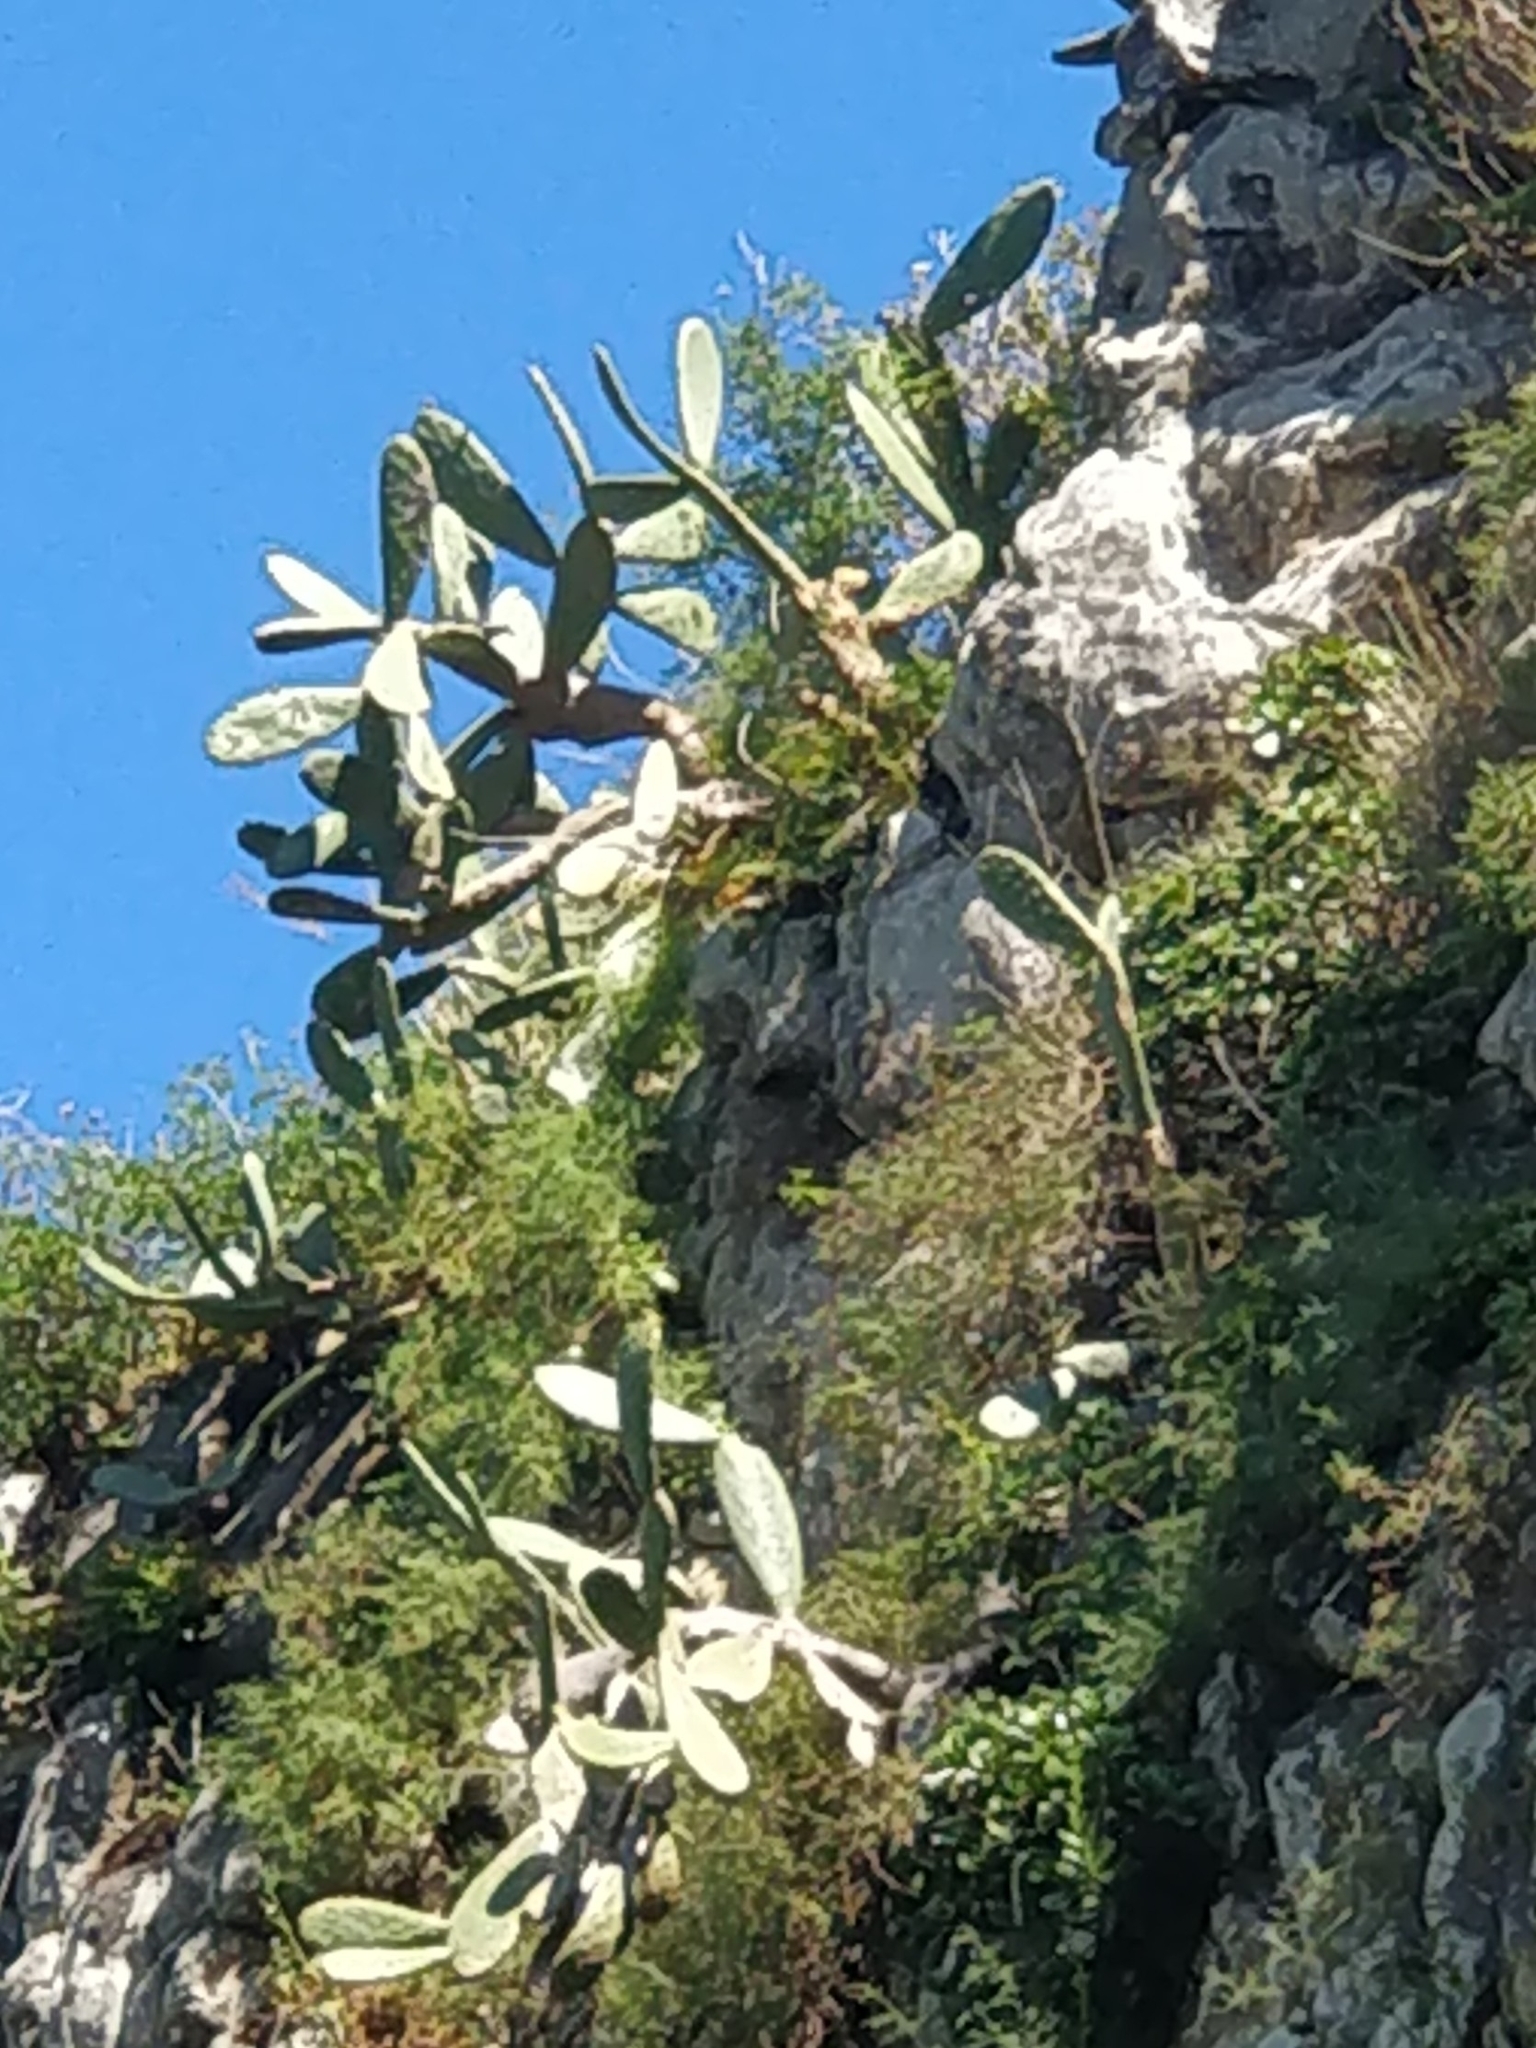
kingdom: Plantae
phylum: Tracheophyta
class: Magnoliopsida
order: Caryophyllales
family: Cactaceae
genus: Opuntia
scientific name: Opuntia ficus-indica
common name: Barbary fig
